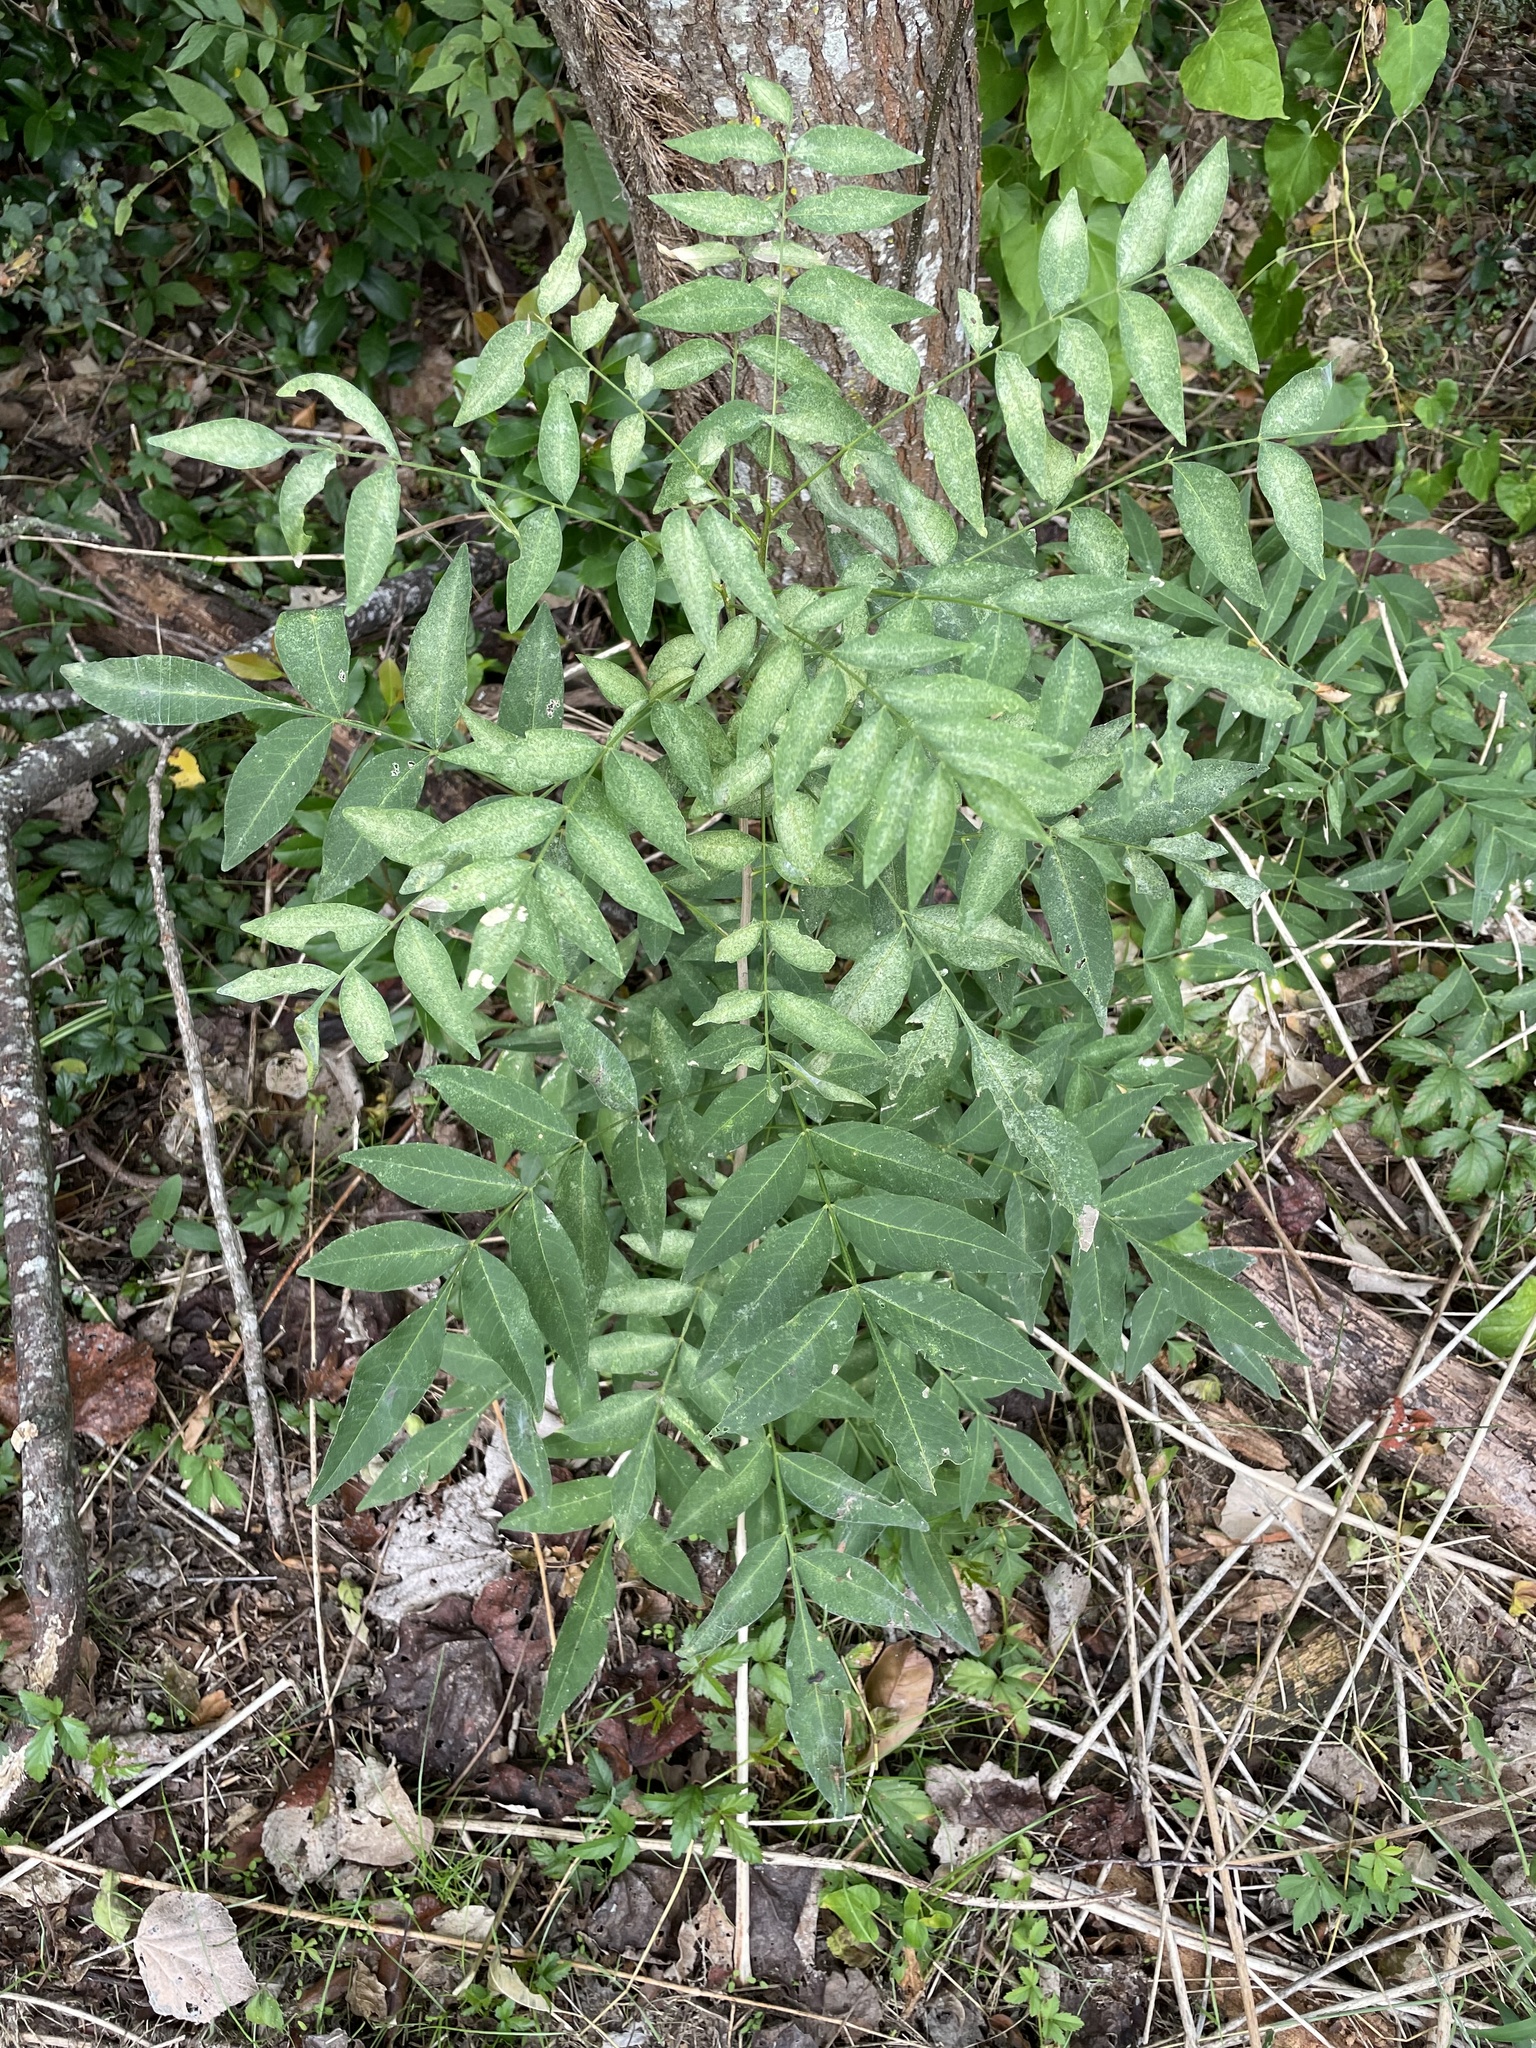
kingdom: Plantae
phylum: Tracheophyta
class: Magnoliopsida
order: Sapindales
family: Sapindaceae
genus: Sapindus
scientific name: Sapindus drummondii
